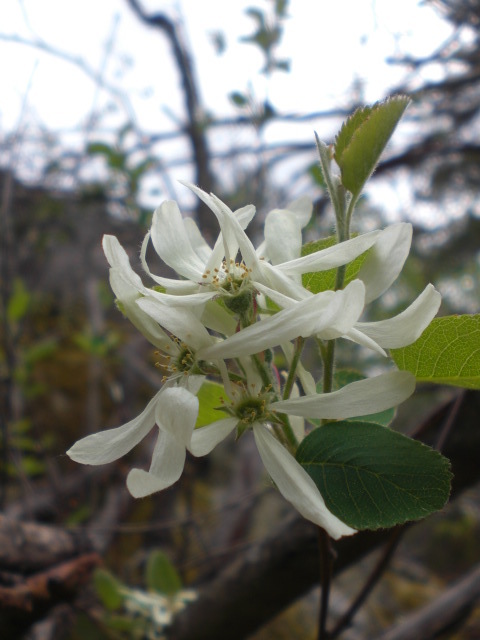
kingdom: Plantae
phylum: Tracheophyta
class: Magnoliopsida
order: Rosales
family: Rosaceae
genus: Amelanchier
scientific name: Amelanchier ovalis
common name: Serviceberry
